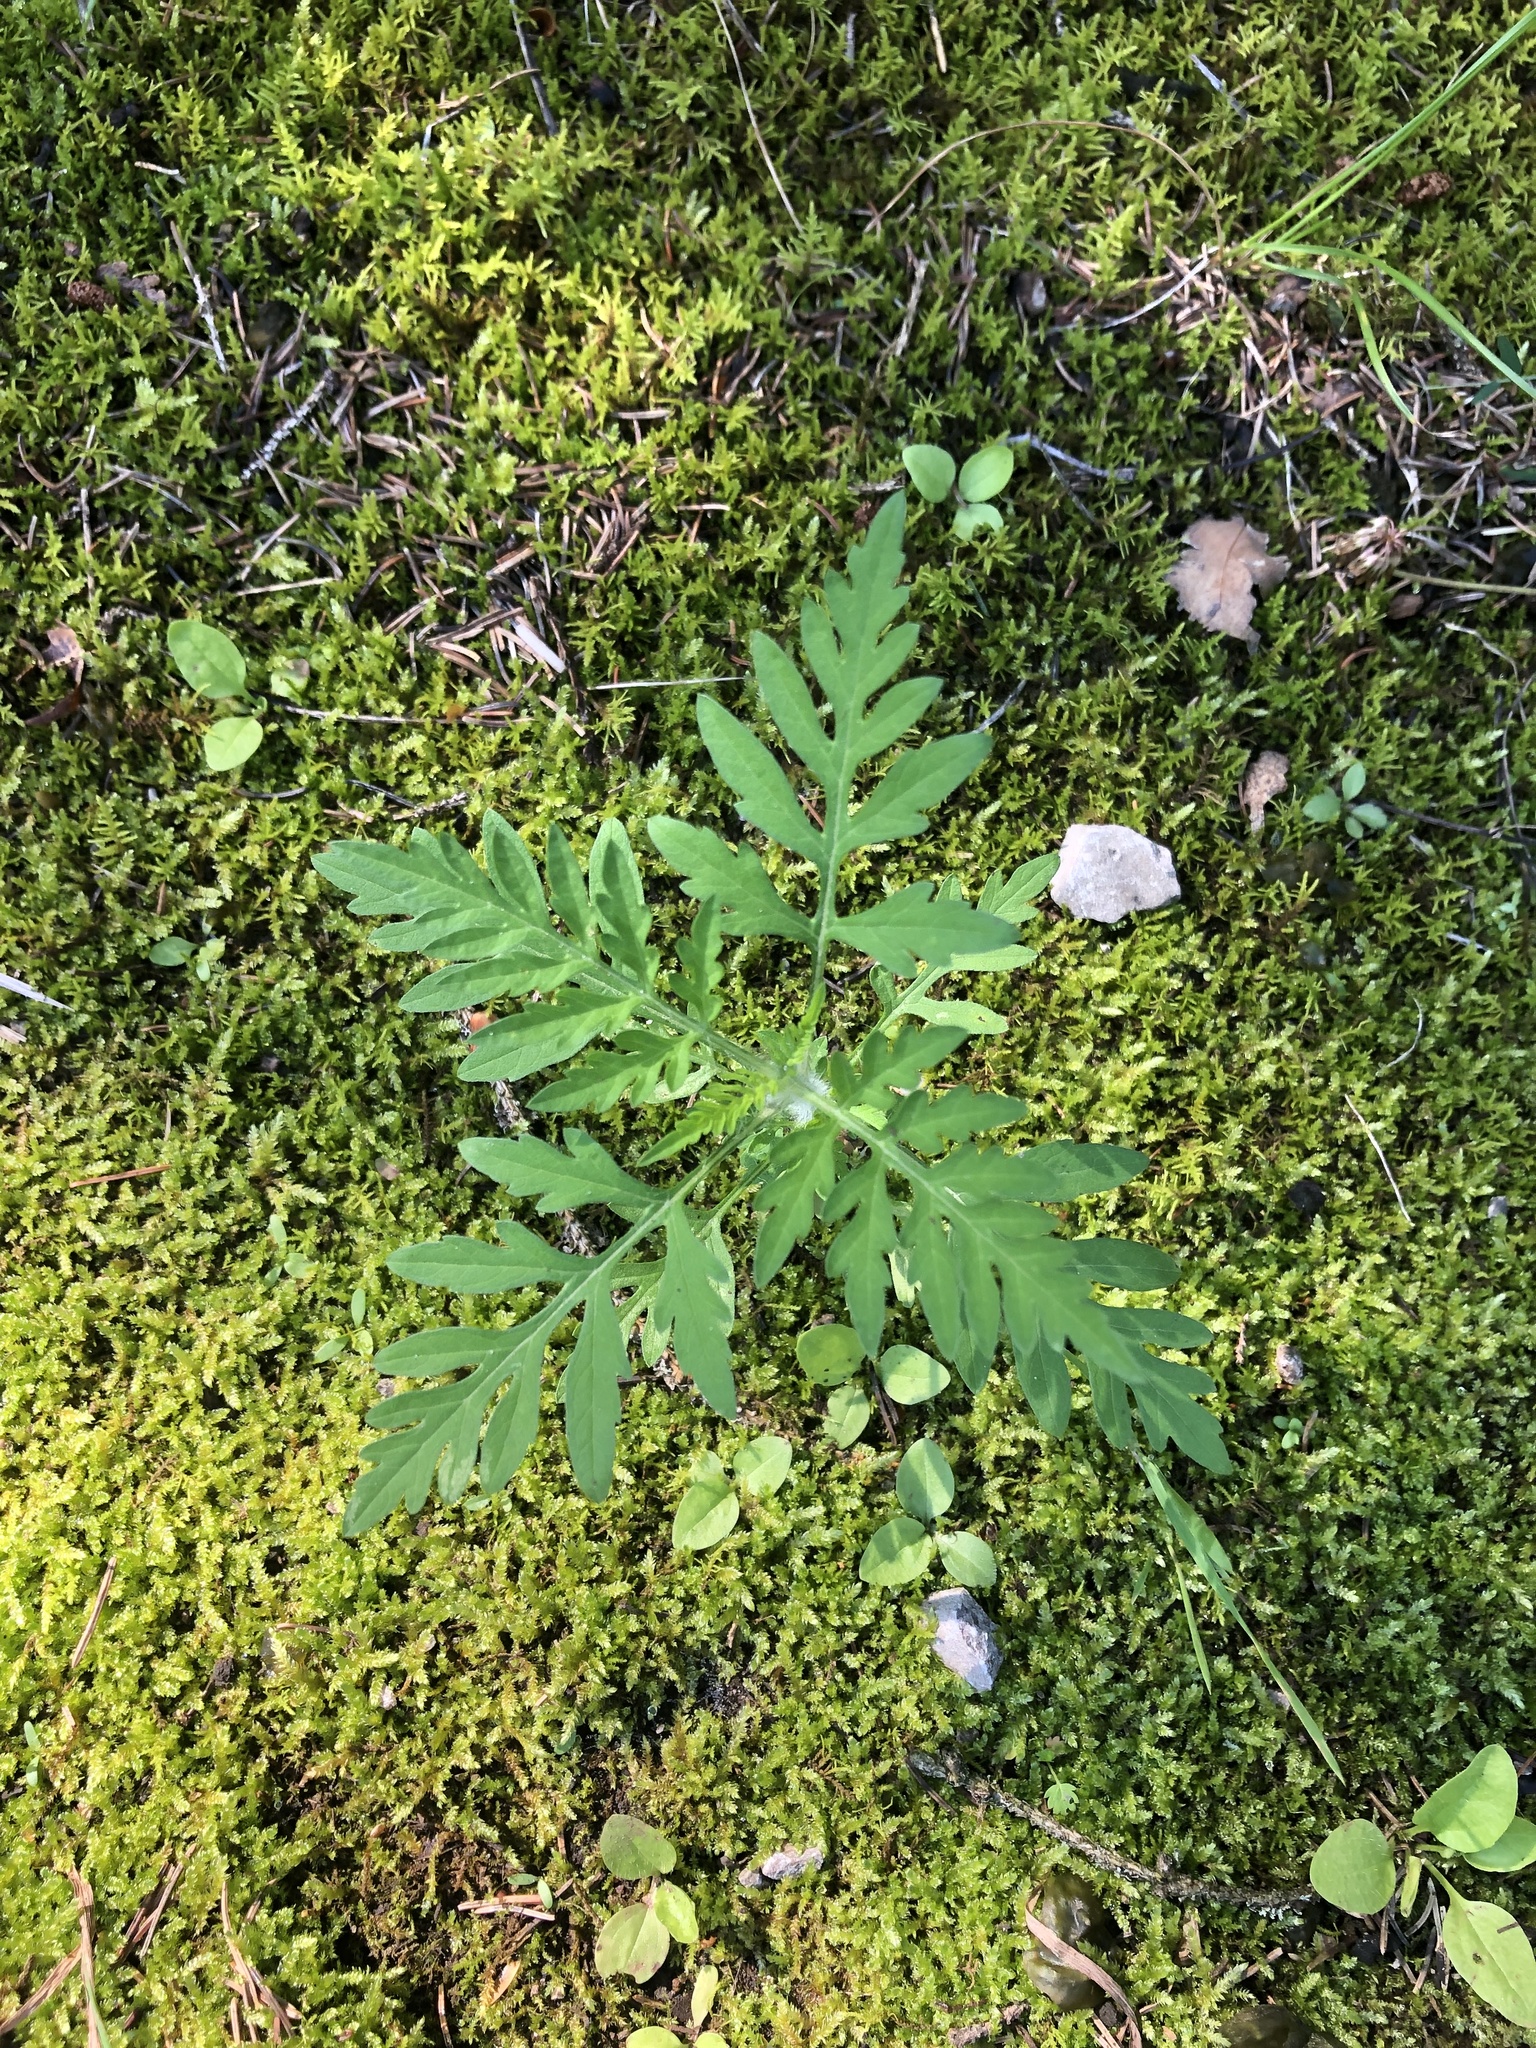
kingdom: Plantae
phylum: Tracheophyta
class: Magnoliopsida
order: Asterales
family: Asteraceae
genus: Ambrosia
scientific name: Ambrosia artemisiifolia
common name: Annual ragweed
